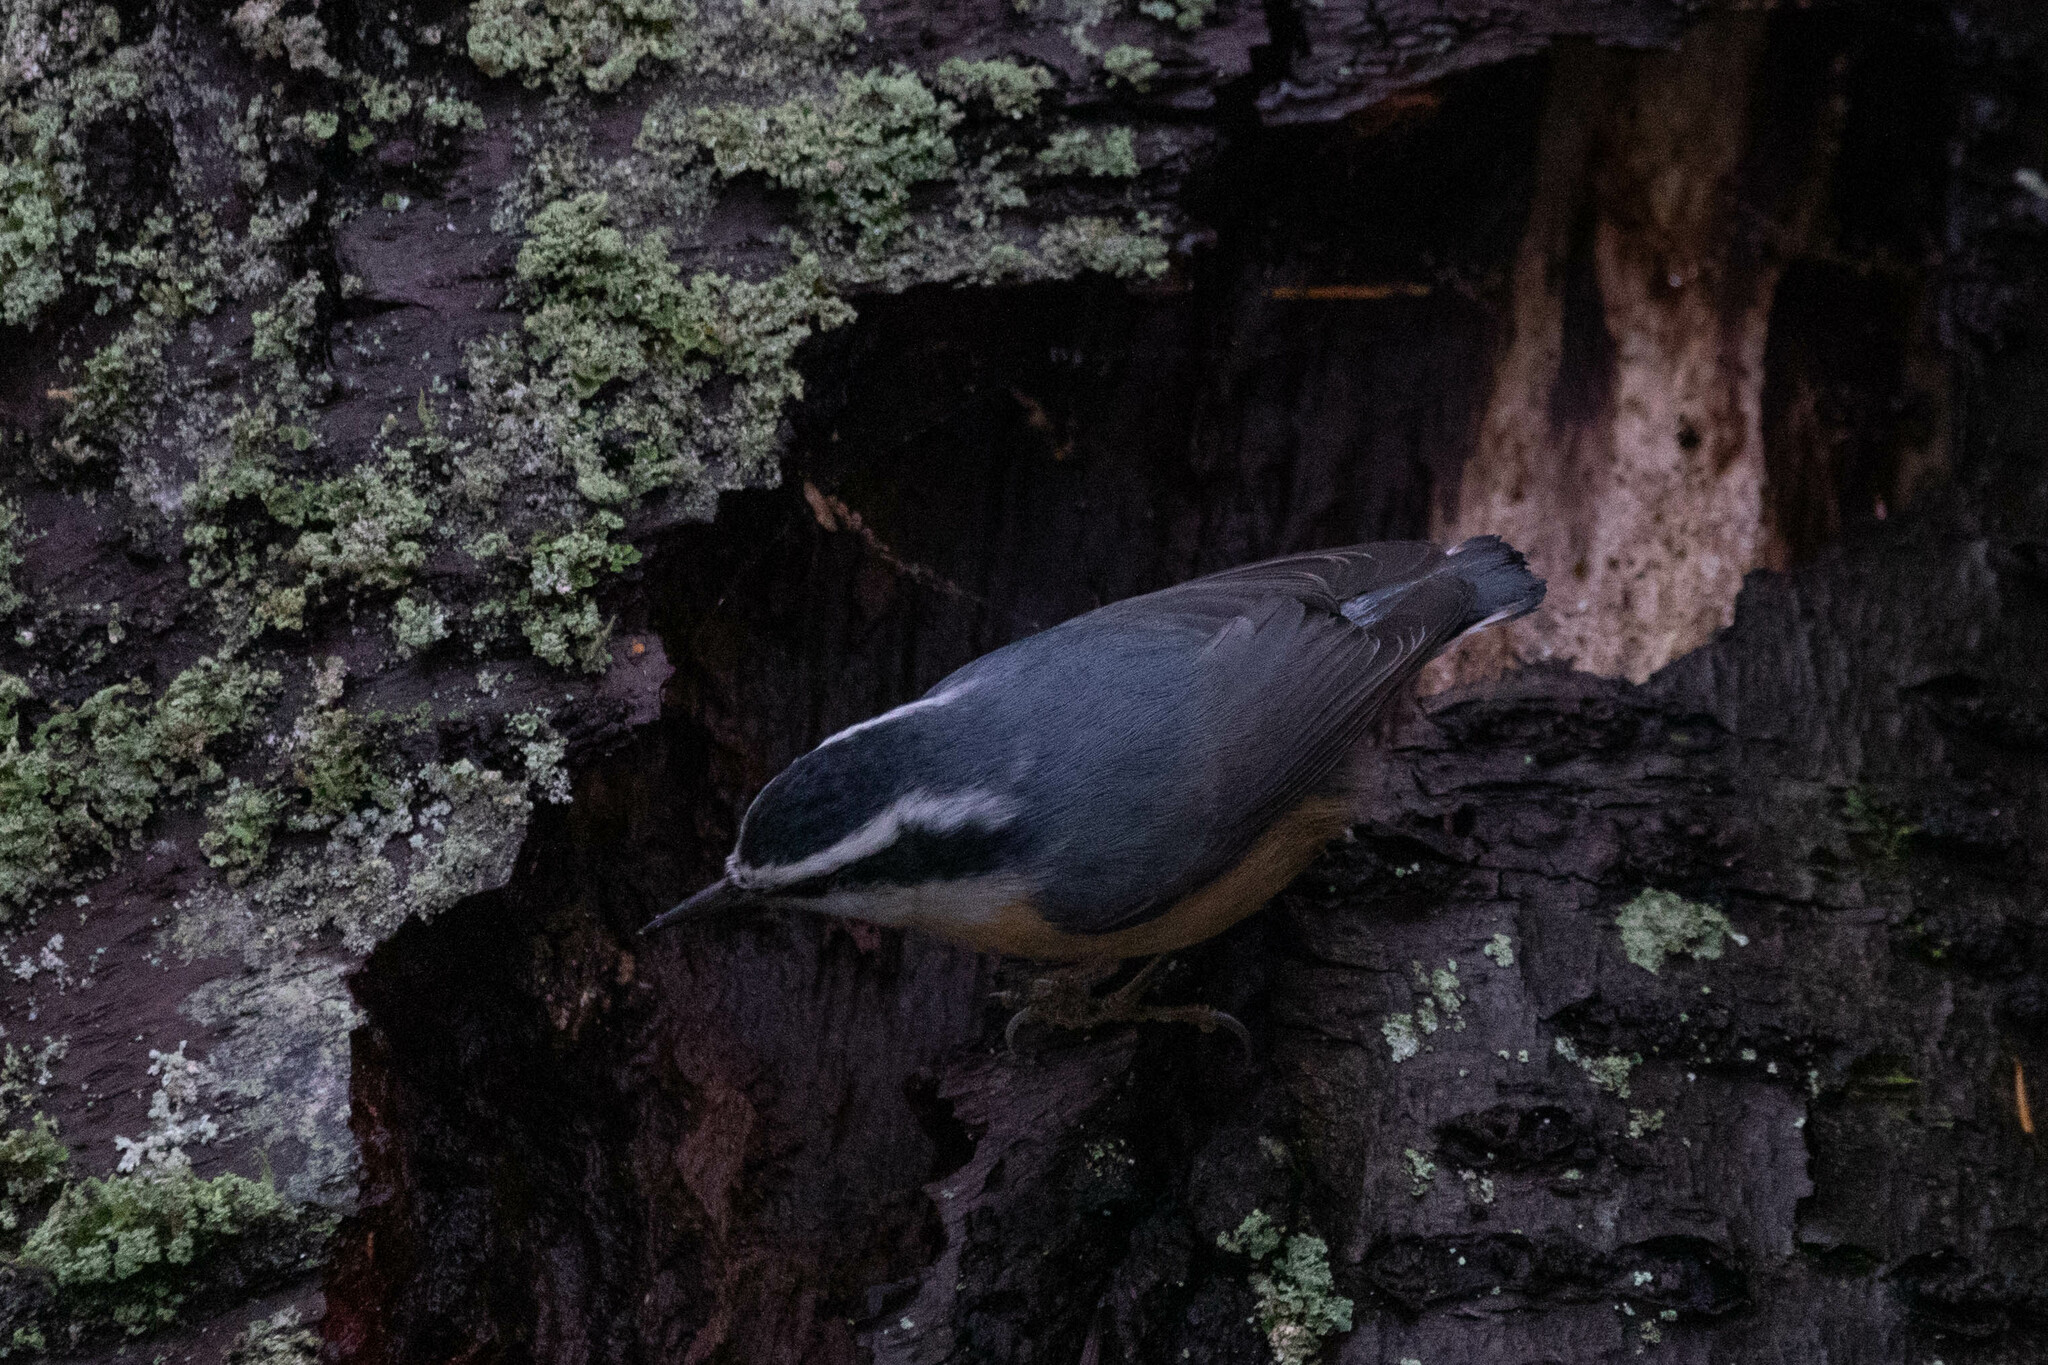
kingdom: Animalia
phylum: Chordata
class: Aves
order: Passeriformes
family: Sittidae
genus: Sitta
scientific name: Sitta canadensis
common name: Red-breasted nuthatch
